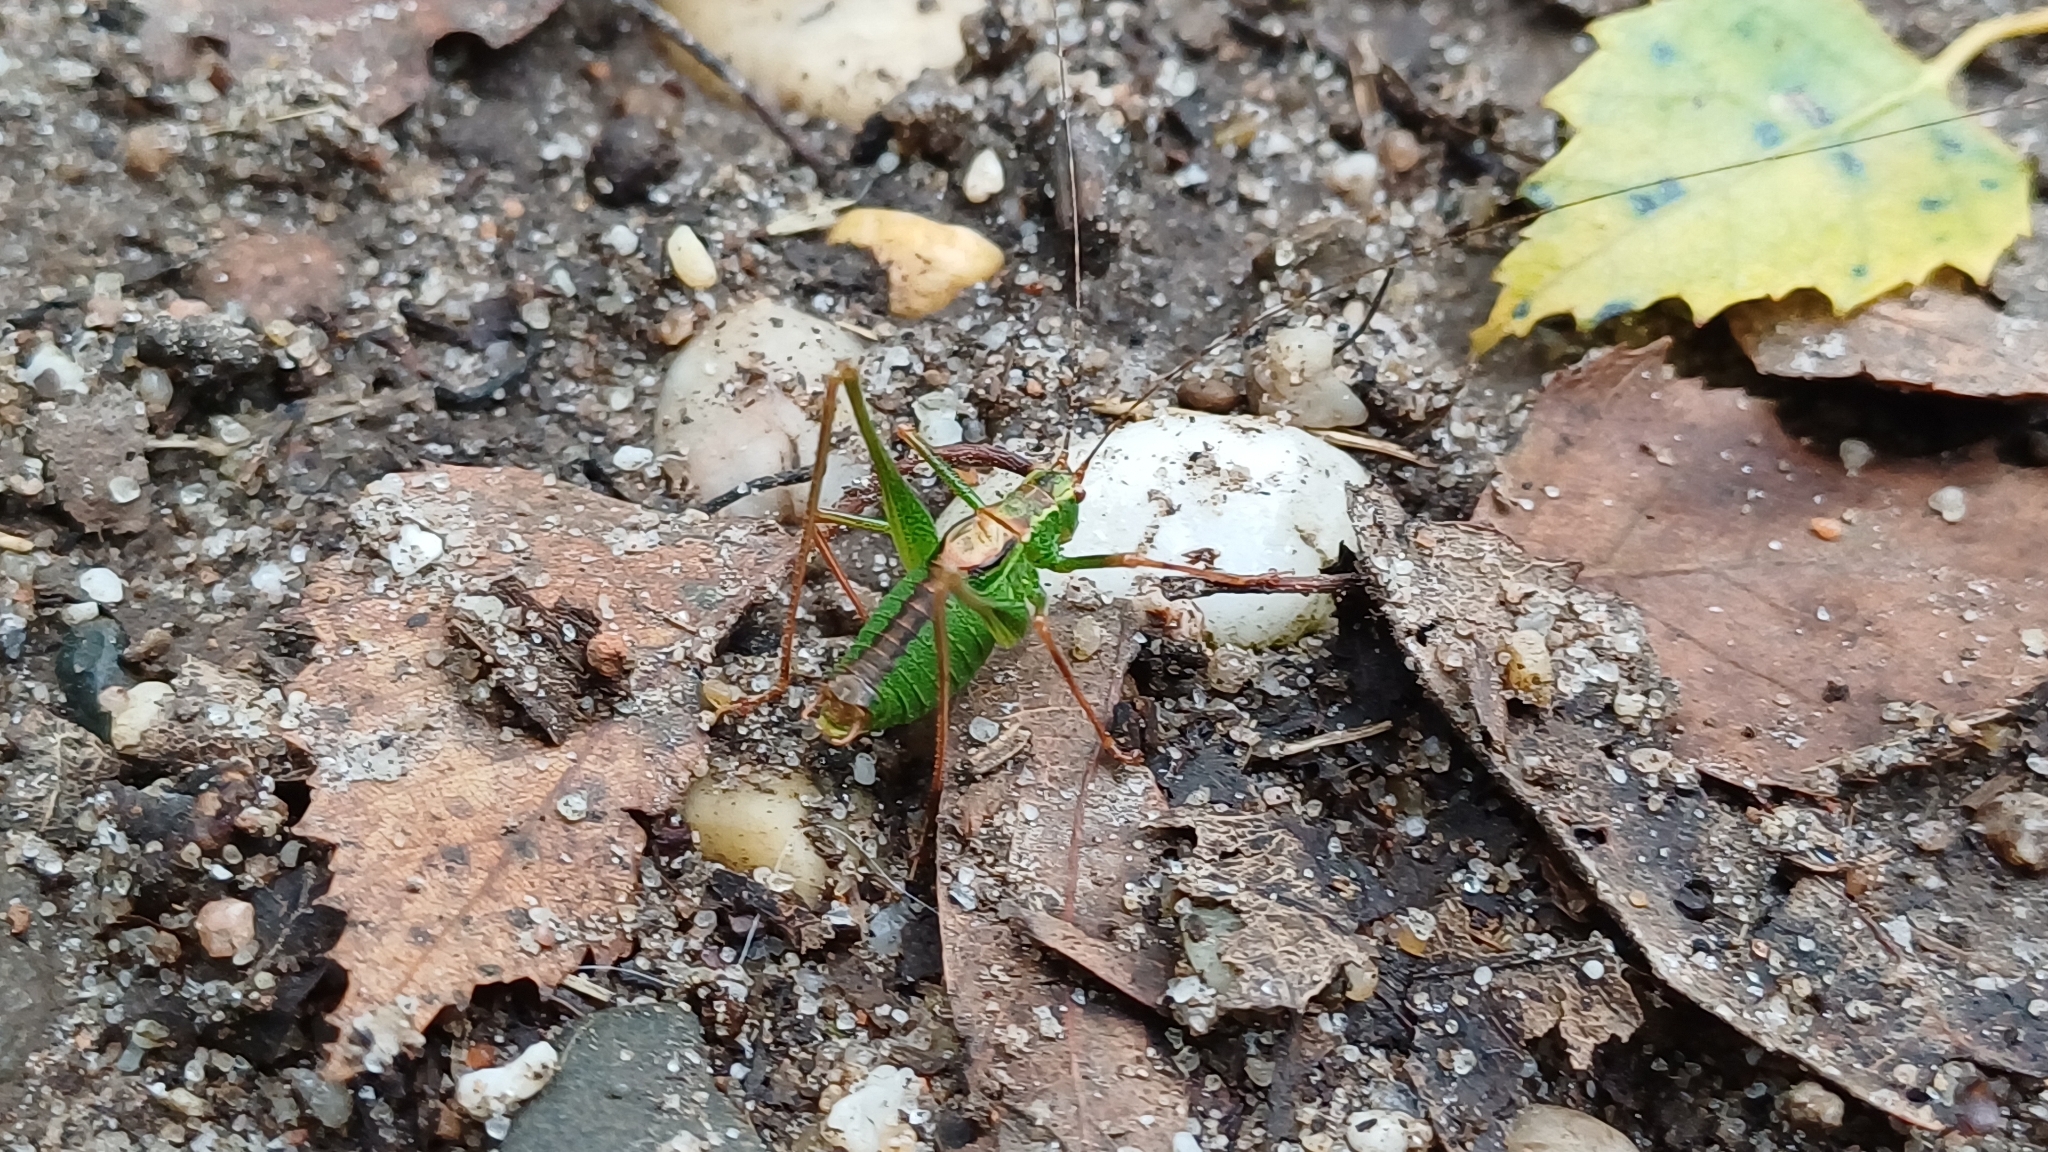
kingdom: Animalia
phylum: Arthropoda
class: Insecta
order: Orthoptera
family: Tettigoniidae
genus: Leptophyes
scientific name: Leptophyes punctatissima
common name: Speckled bush-cricket
